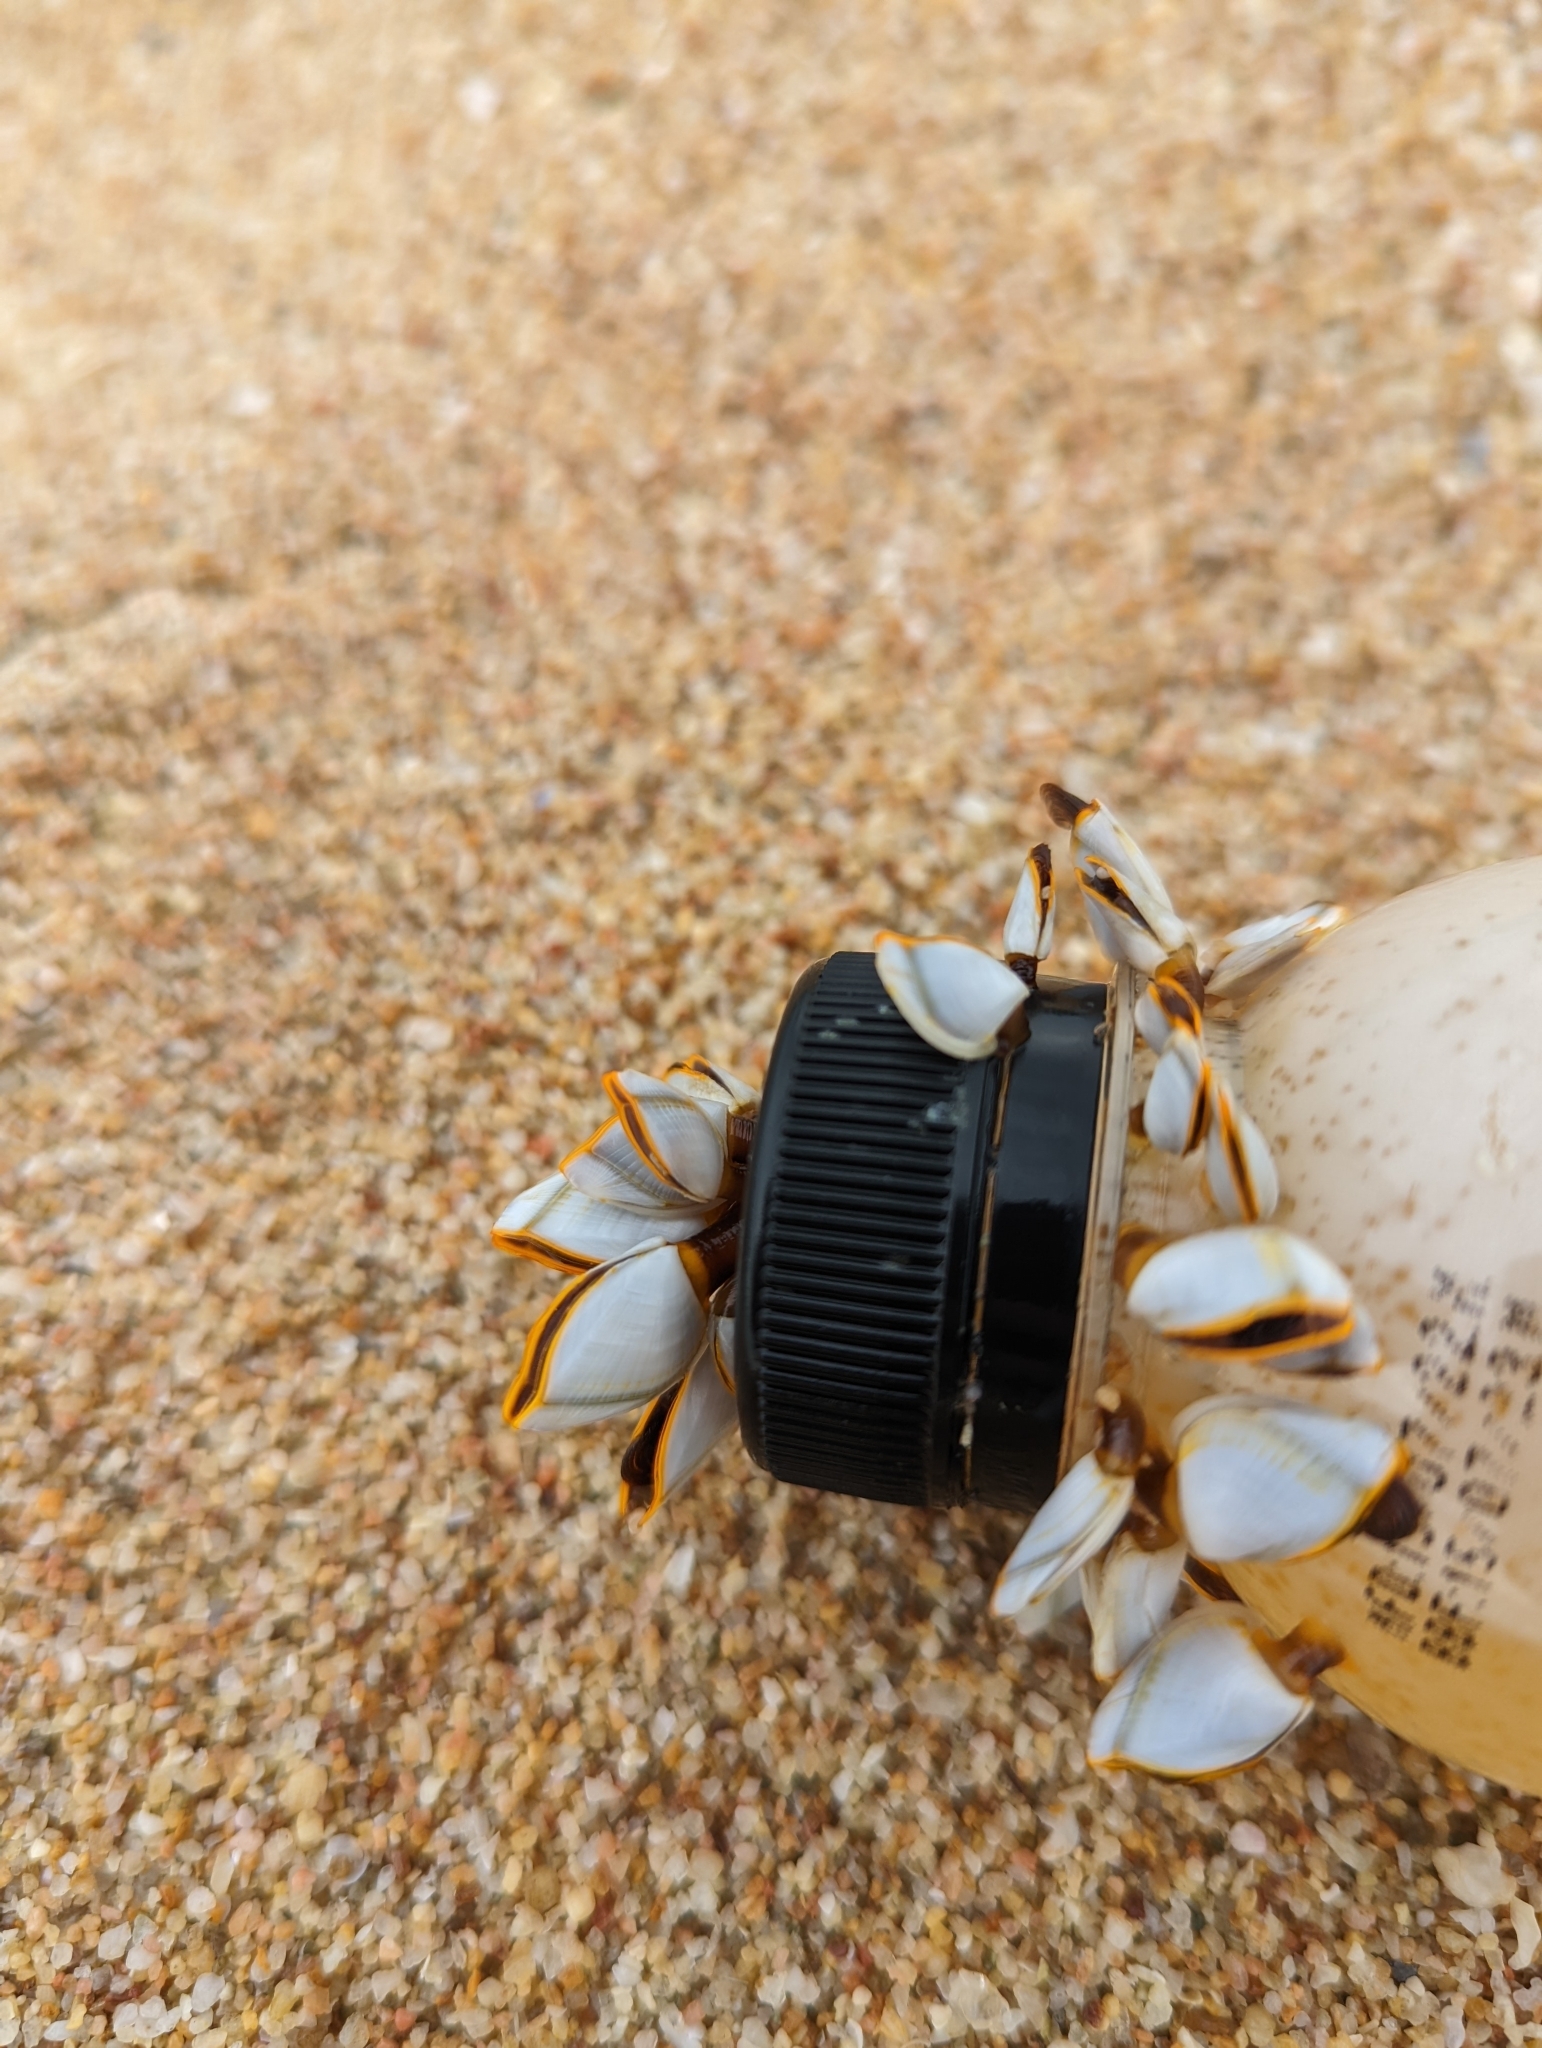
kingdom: Animalia
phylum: Arthropoda
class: Maxillopoda
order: Pedunculata
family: Lepadidae
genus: Lepas
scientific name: Lepas anserifera
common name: Goose barnacle
